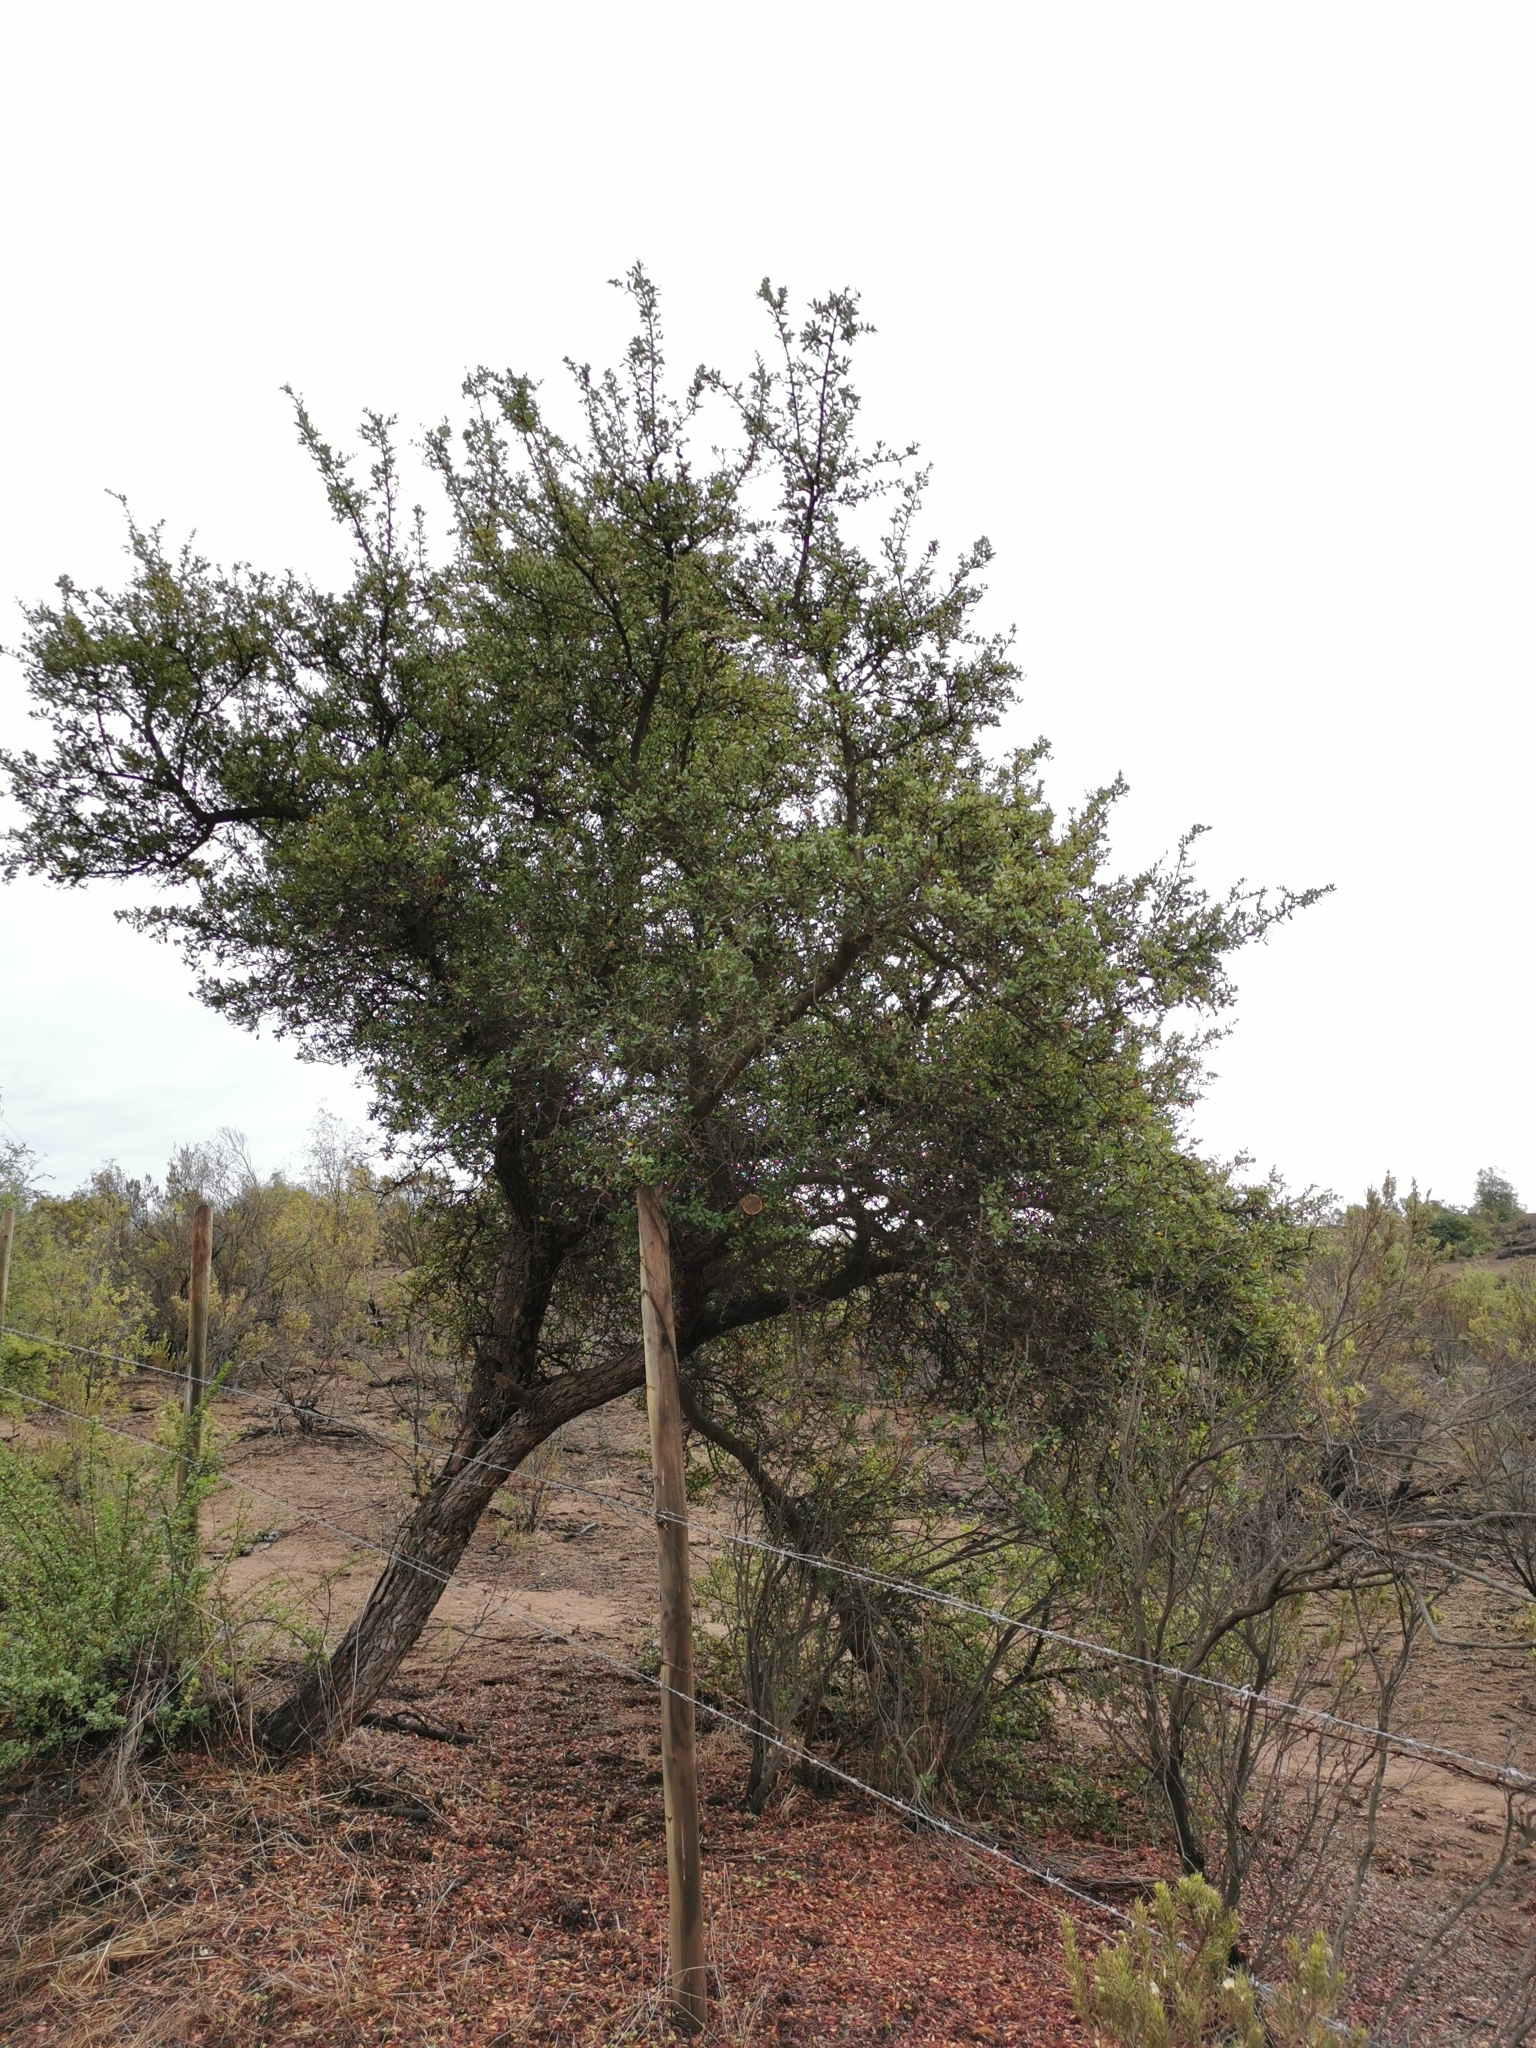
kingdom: Plantae
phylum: Tracheophyta
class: Magnoliopsida
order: Sapindales
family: Anacardiaceae
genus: Schinus
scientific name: Schinus polygama
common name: Hardee peppertree
